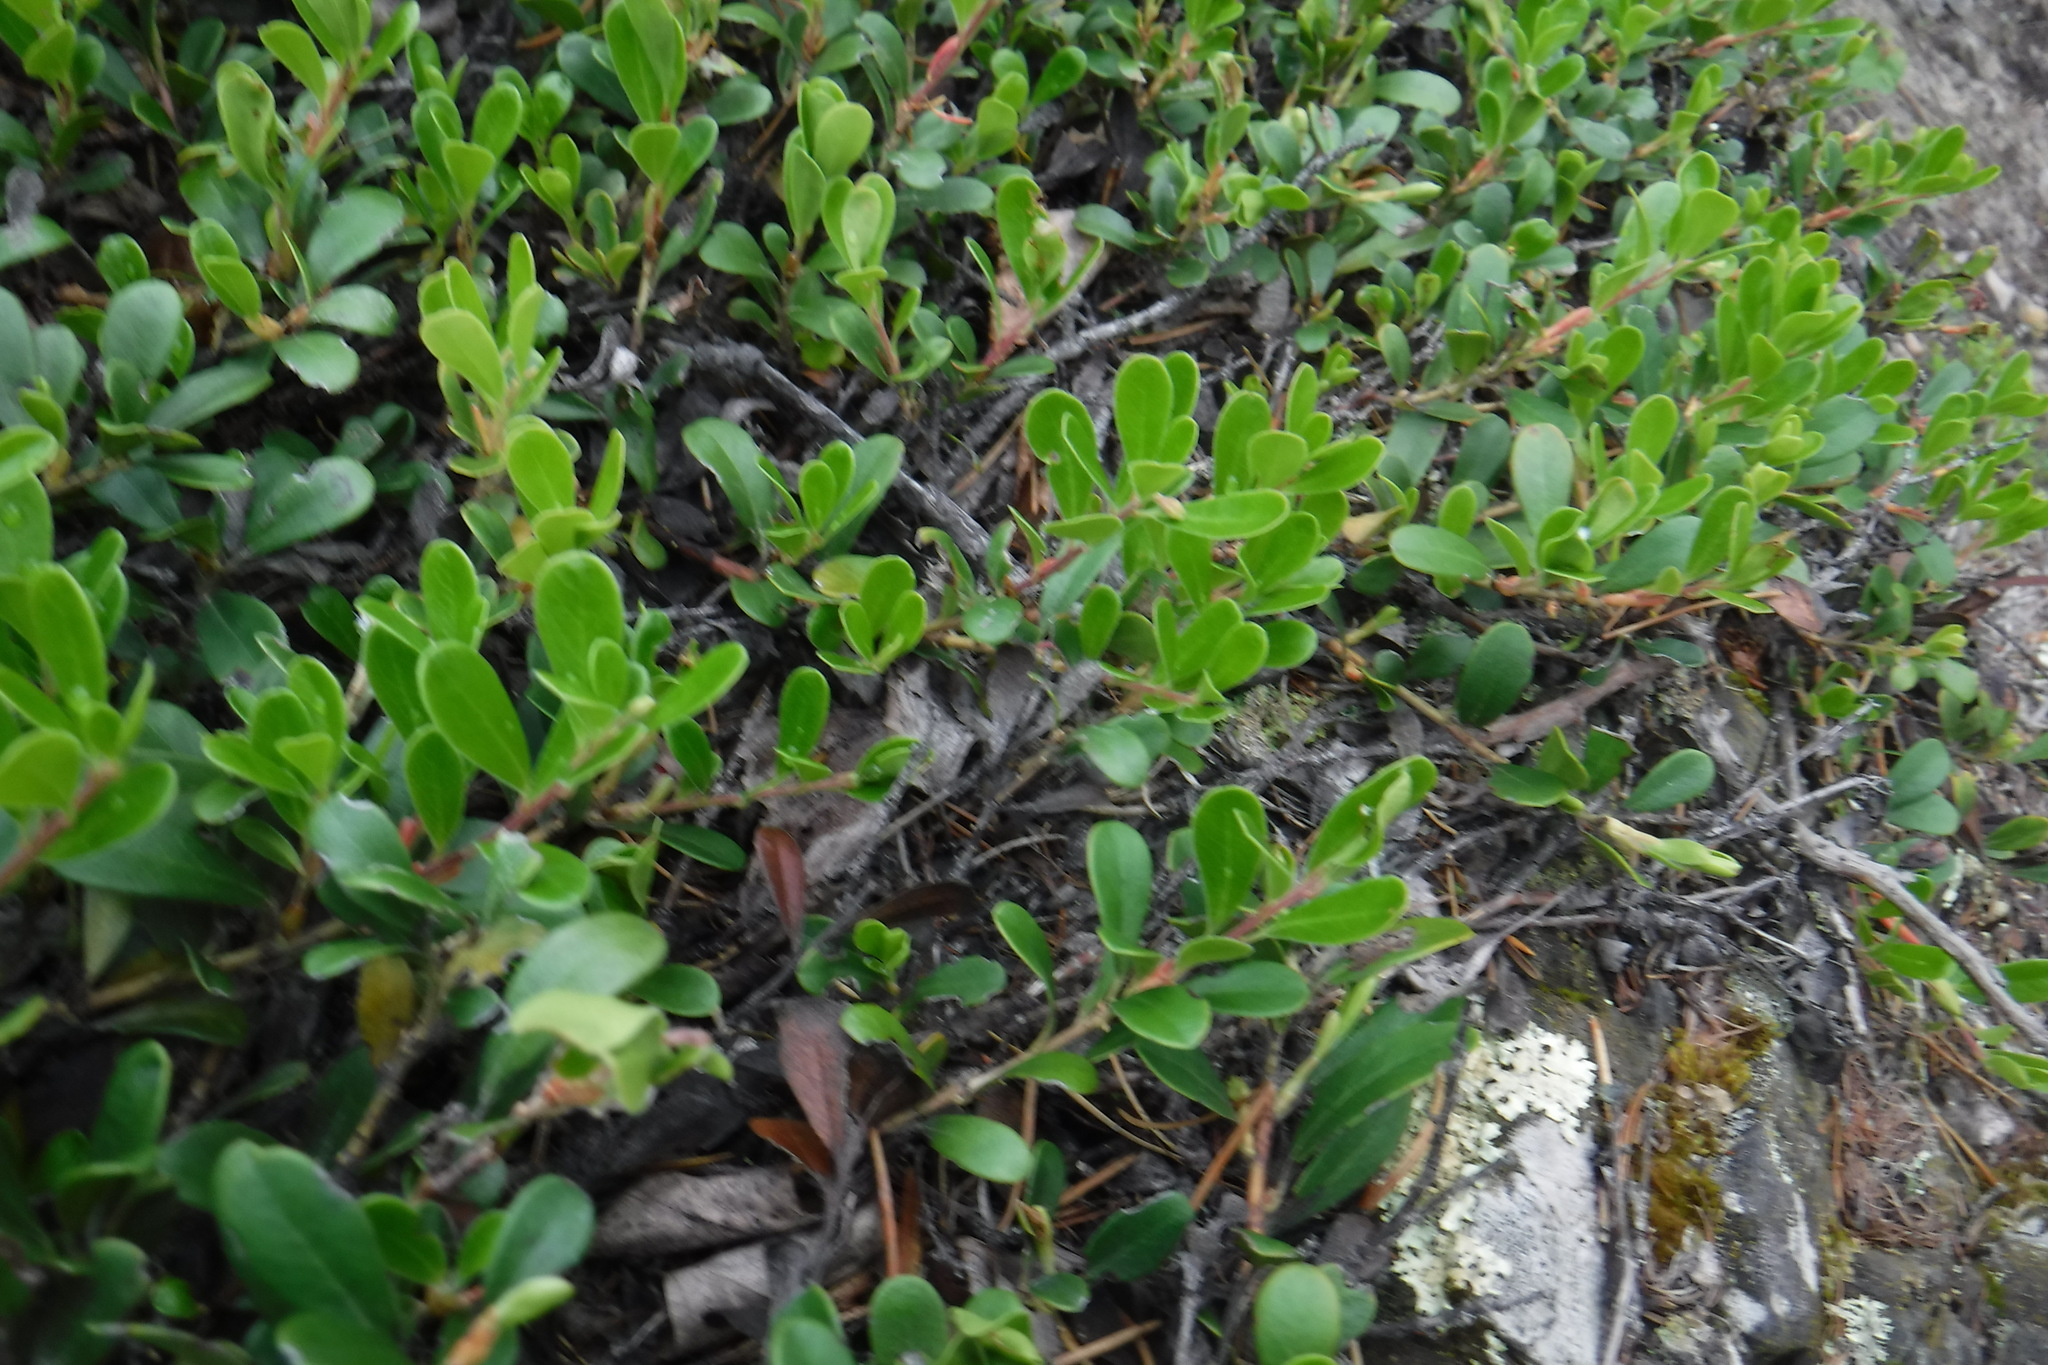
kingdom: Plantae
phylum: Tracheophyta
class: Magnoliopsida
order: Ericales
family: Ericaceae
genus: Arctostaphylos
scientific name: Arctostaphylos uva-ursi
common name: Bearberry
